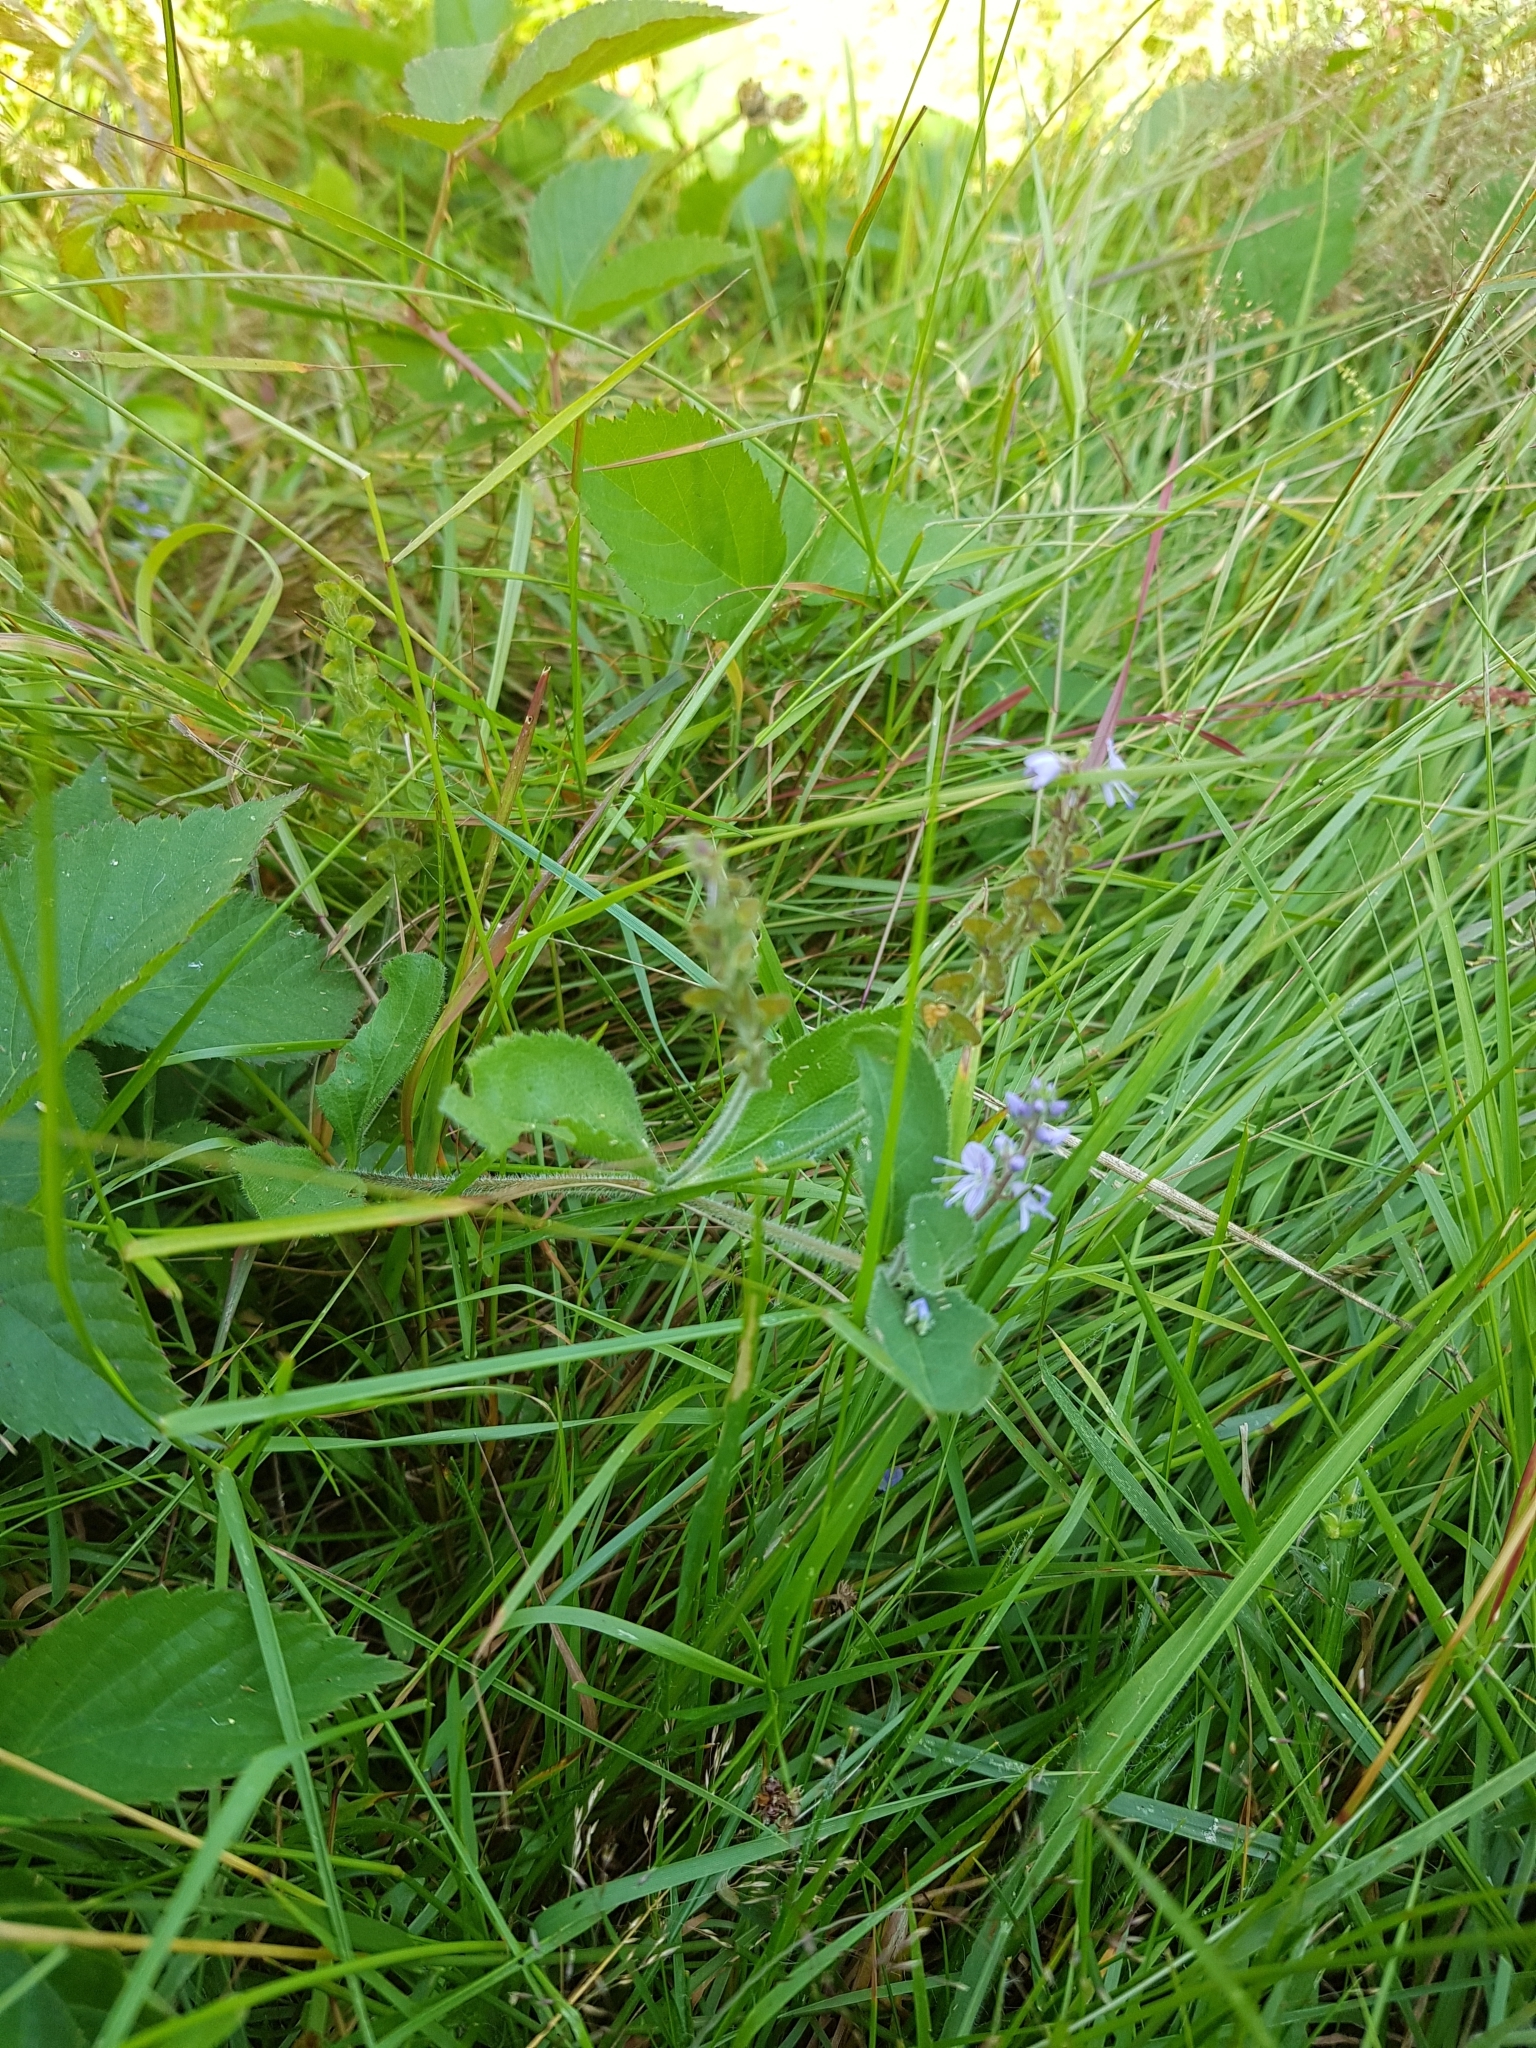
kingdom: Plantae
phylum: Tracheophyta
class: Magnoliopsida
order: Lamiales
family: Plantaginaceae
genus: Veronica
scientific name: Veronica officinalis
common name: Common speedwell
